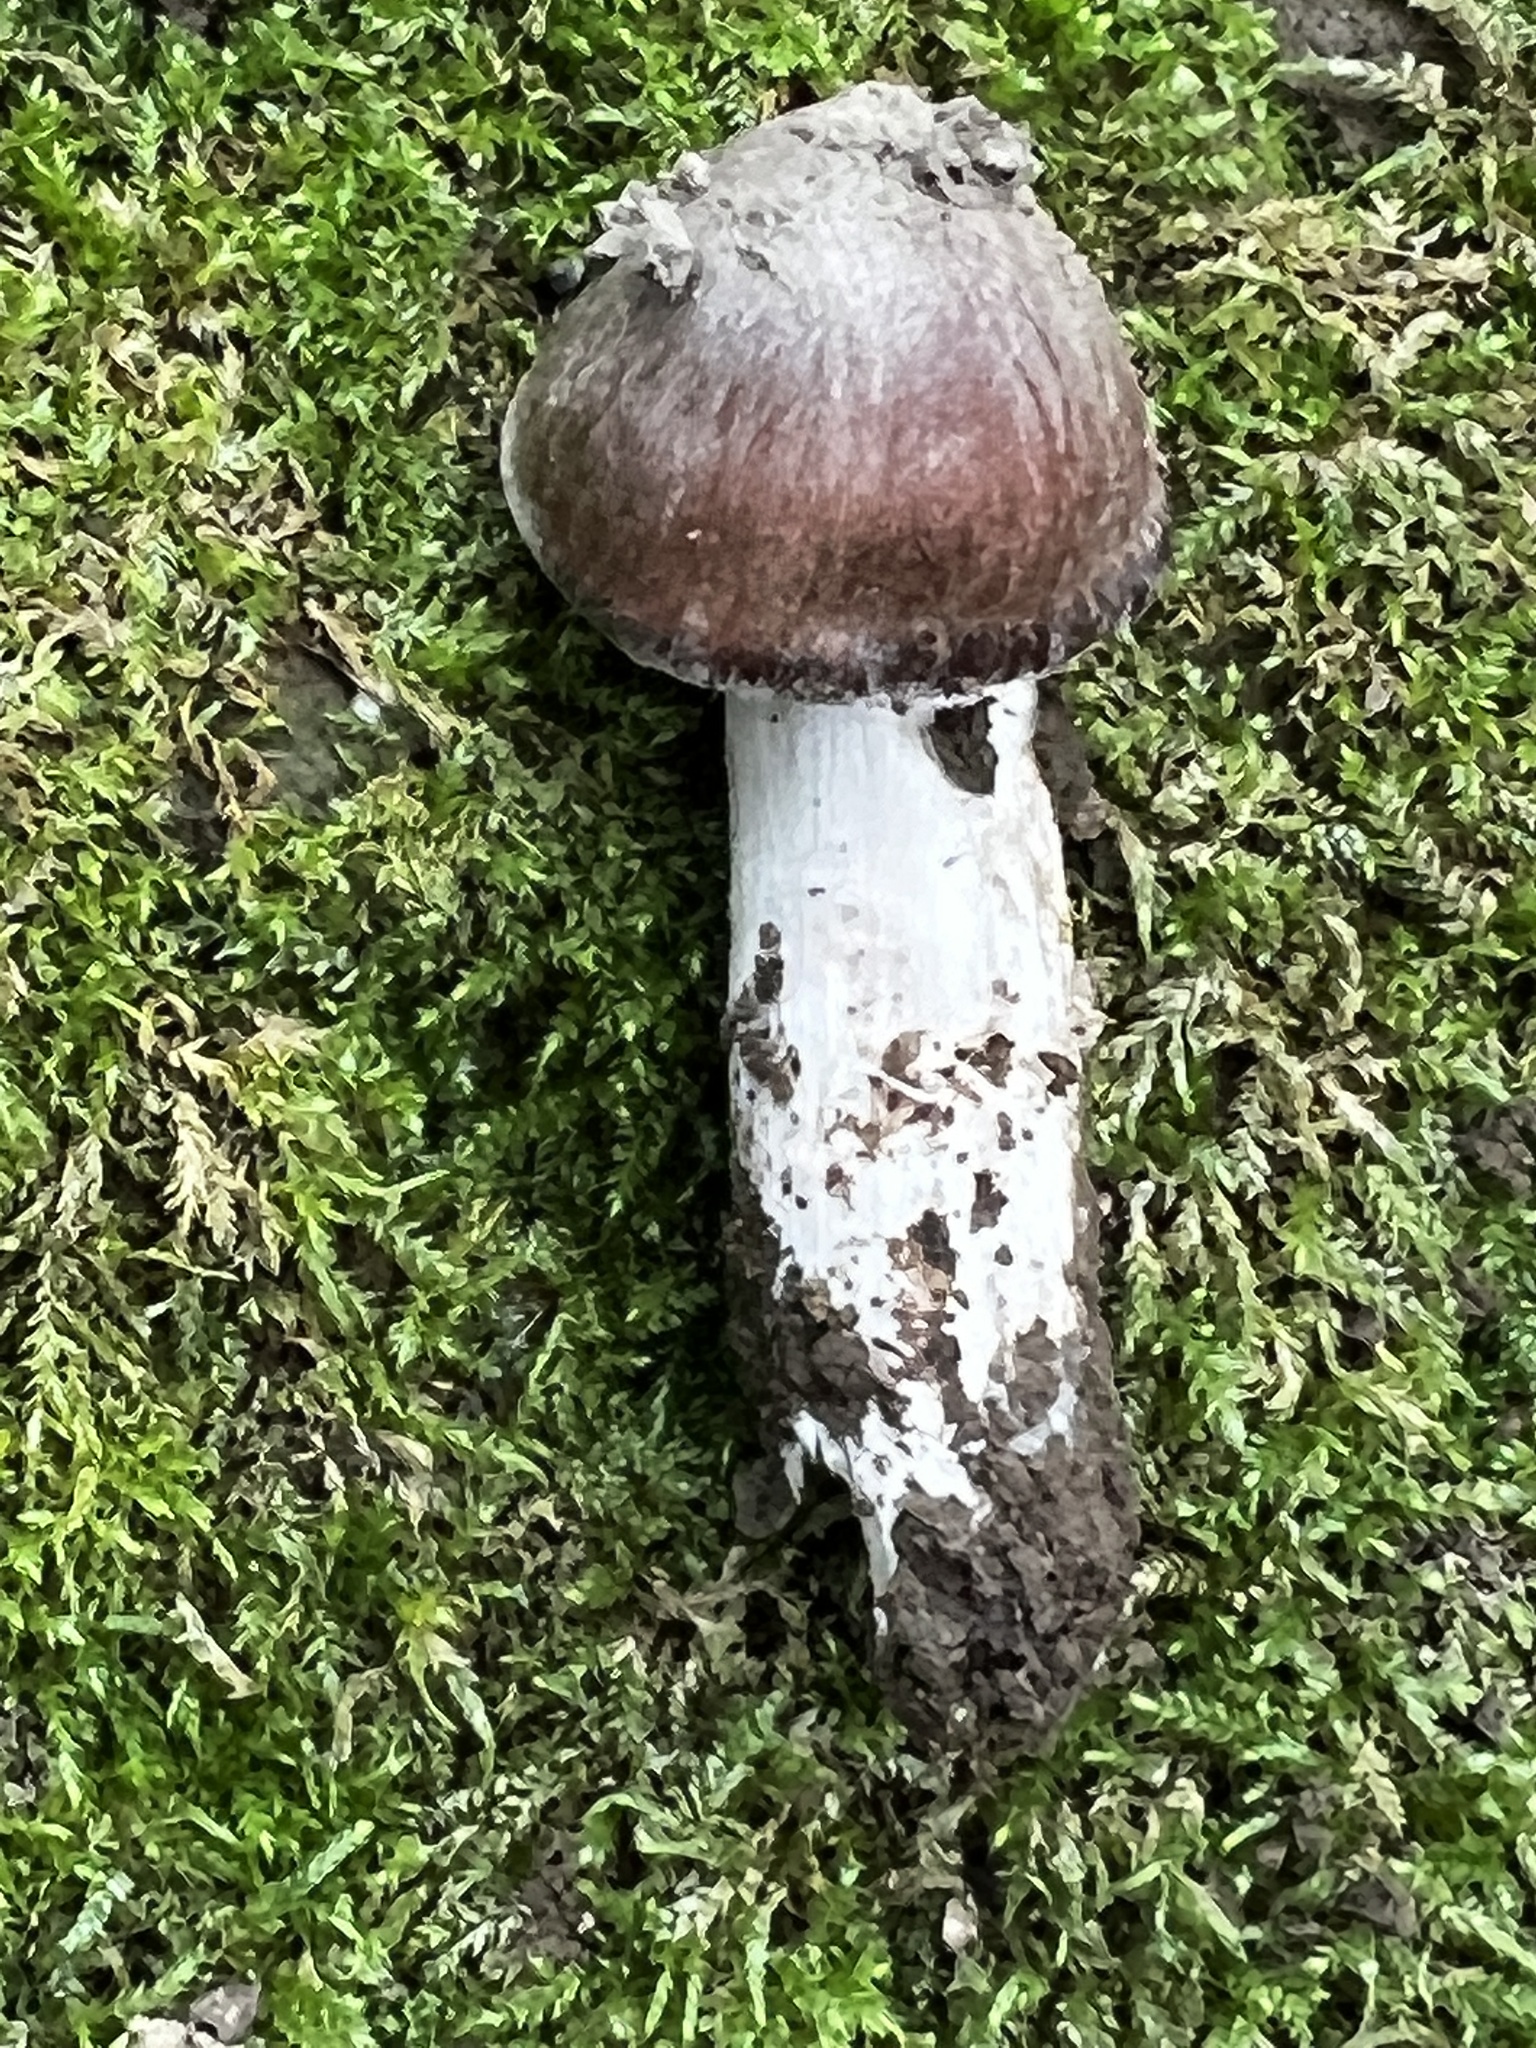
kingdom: Fungi
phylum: Basidiomycota
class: Agaricomycetes
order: Agaricales
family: Cortinariaceae
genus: Cortinarius
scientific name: Cortinarius ohlone
